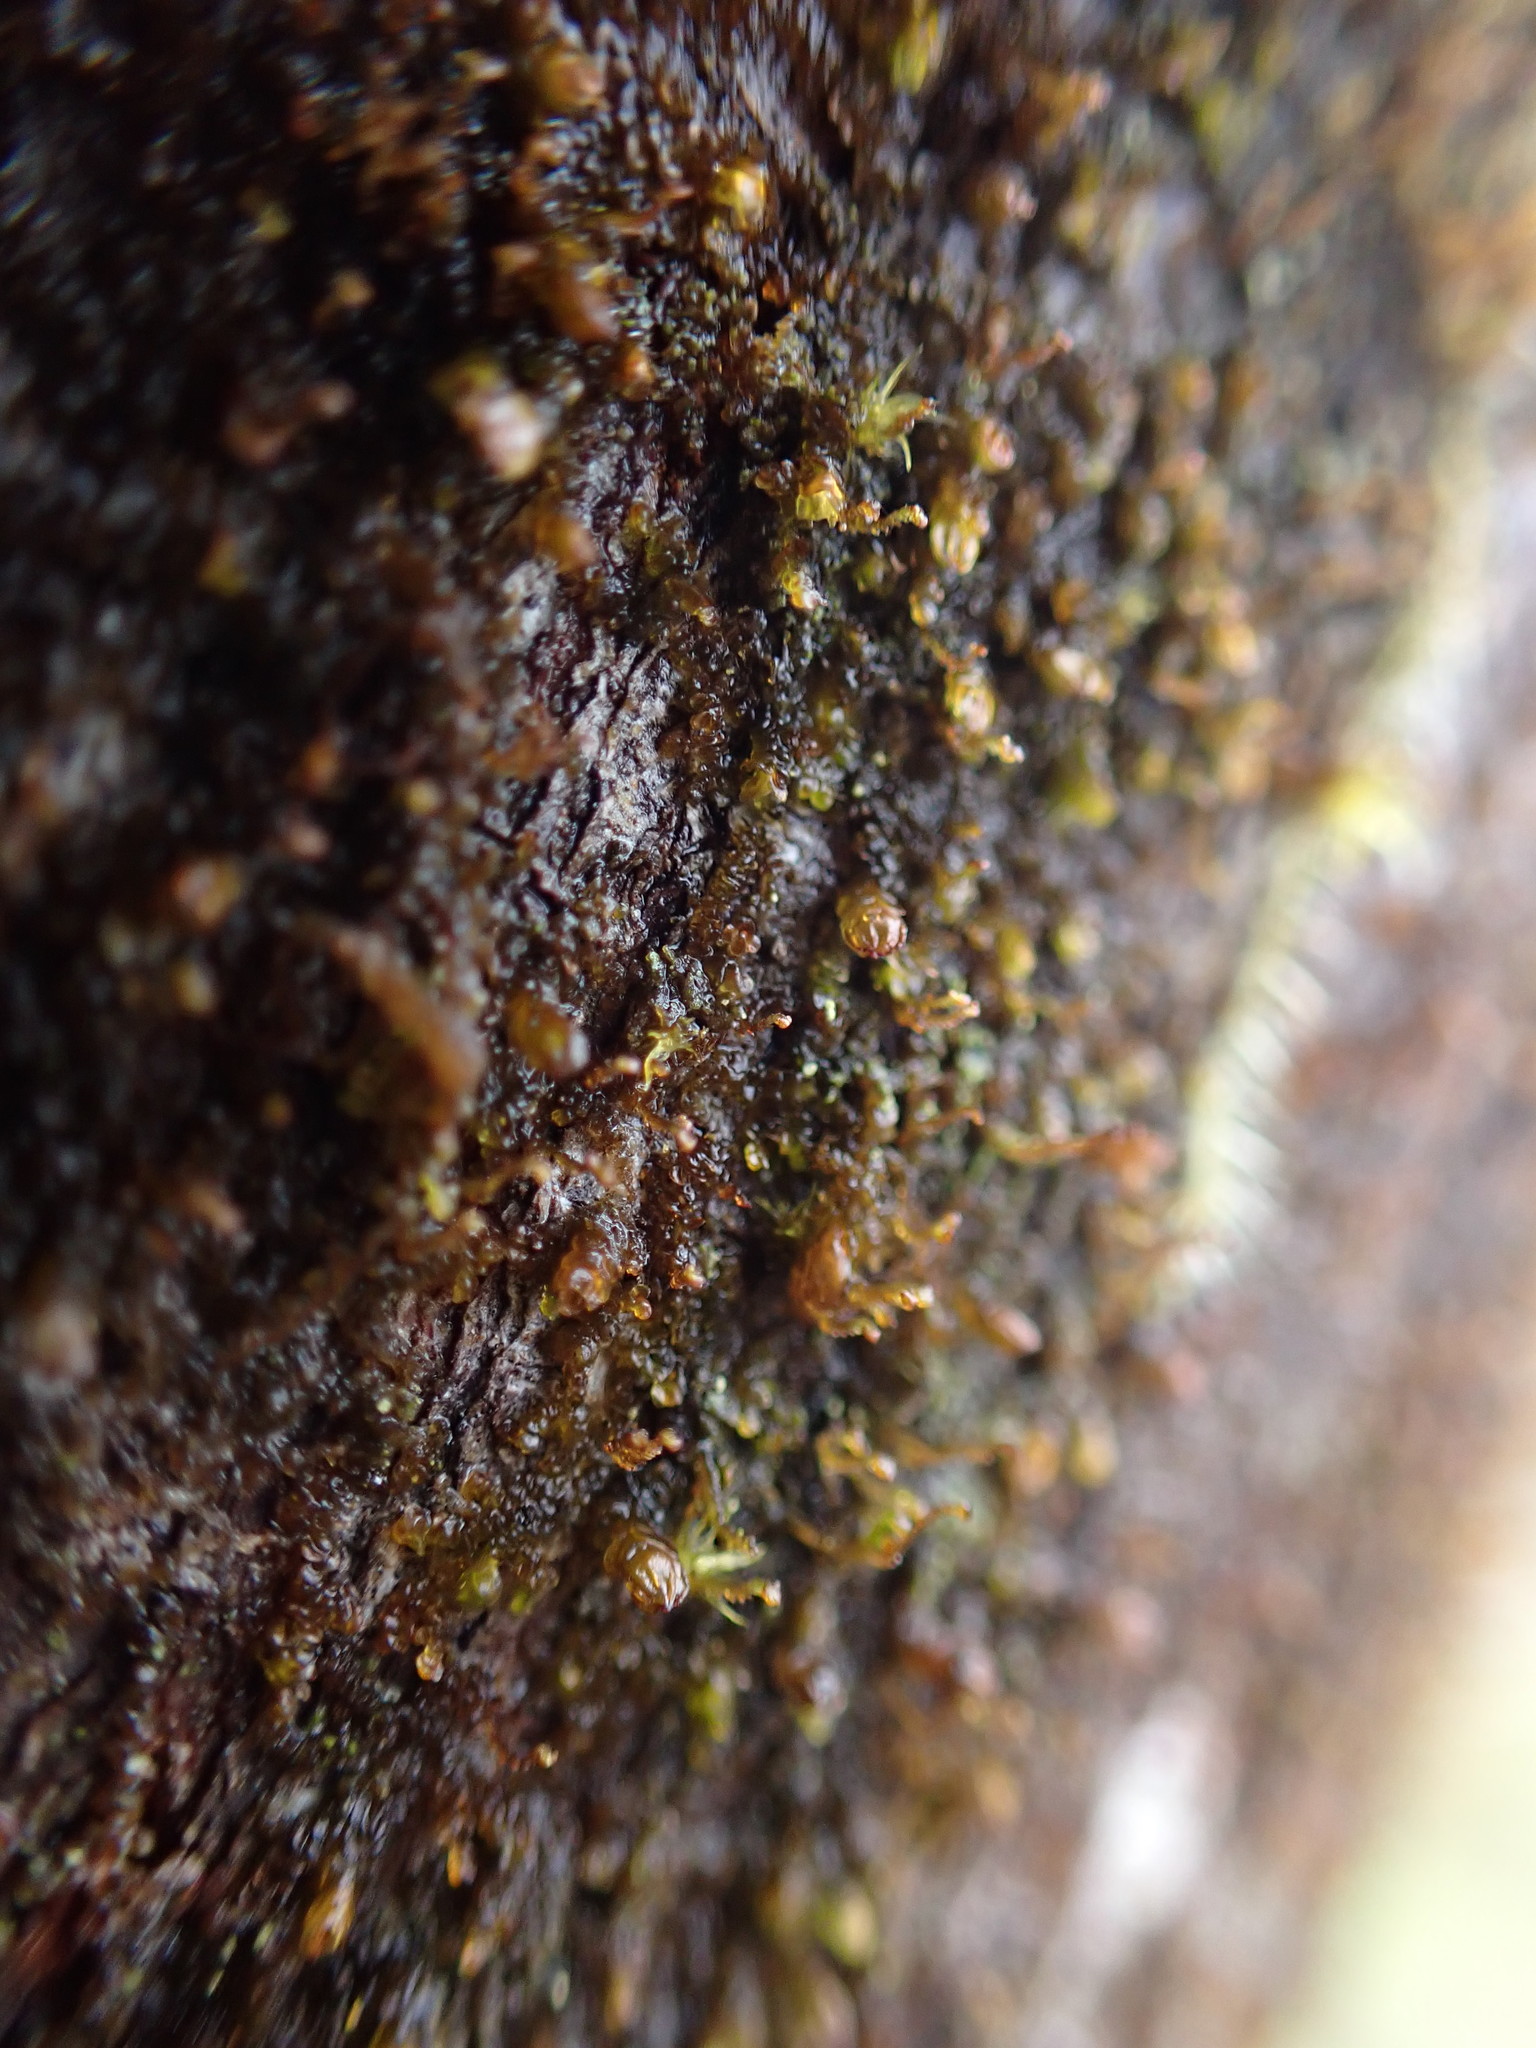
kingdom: Plantae
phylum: Marchantiophyta
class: Jungermanniopsida
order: Porellales
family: Frullaniaceae
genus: Frullania
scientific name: Frullania bolanderi
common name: Bolander s scalewort
